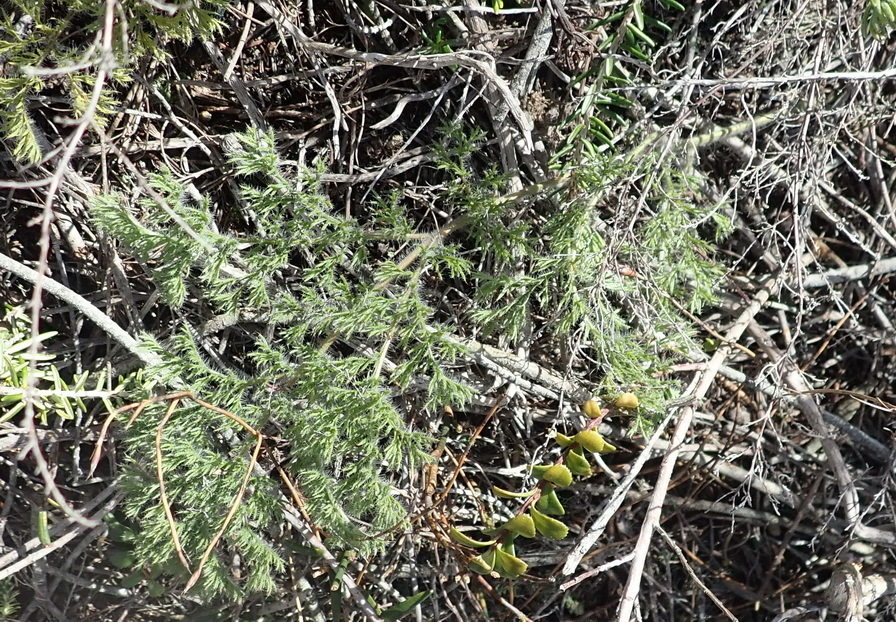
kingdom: Plantae
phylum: Tracheophyta
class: Magnoliopsida
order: Geraniales
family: Geraniaceae
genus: Pelargonium
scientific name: Pelargonium triste
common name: Night-scent pelargonium
